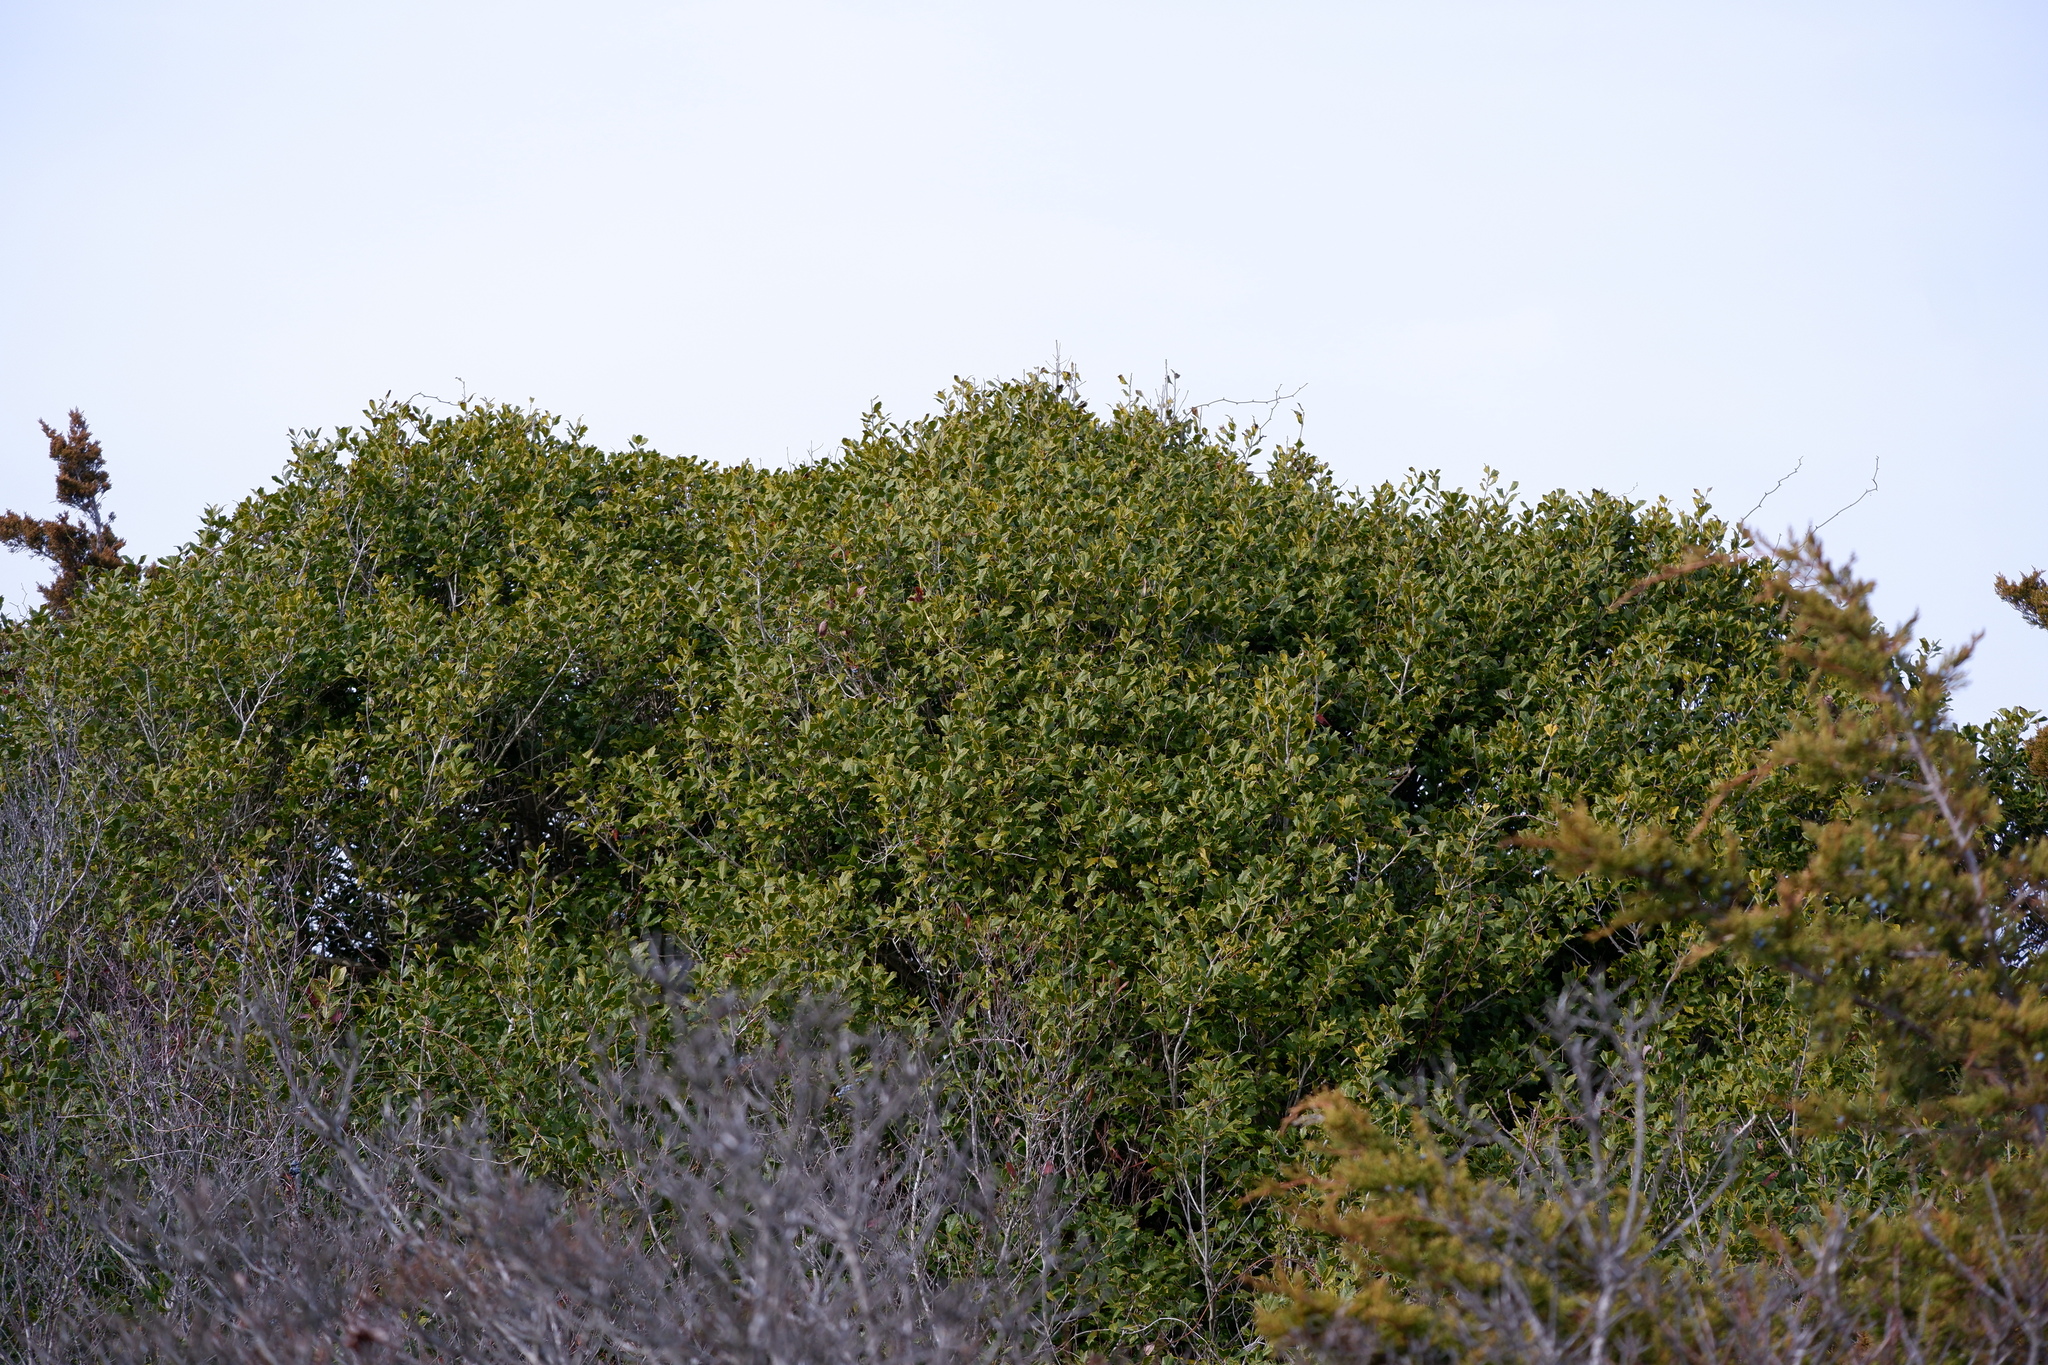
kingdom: Plantae
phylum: Tracheophyta
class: Magnoliopsida
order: Aquifoliales
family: Aquifoliaceae
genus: Ilex
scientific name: Ilex opaca
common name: American holly
